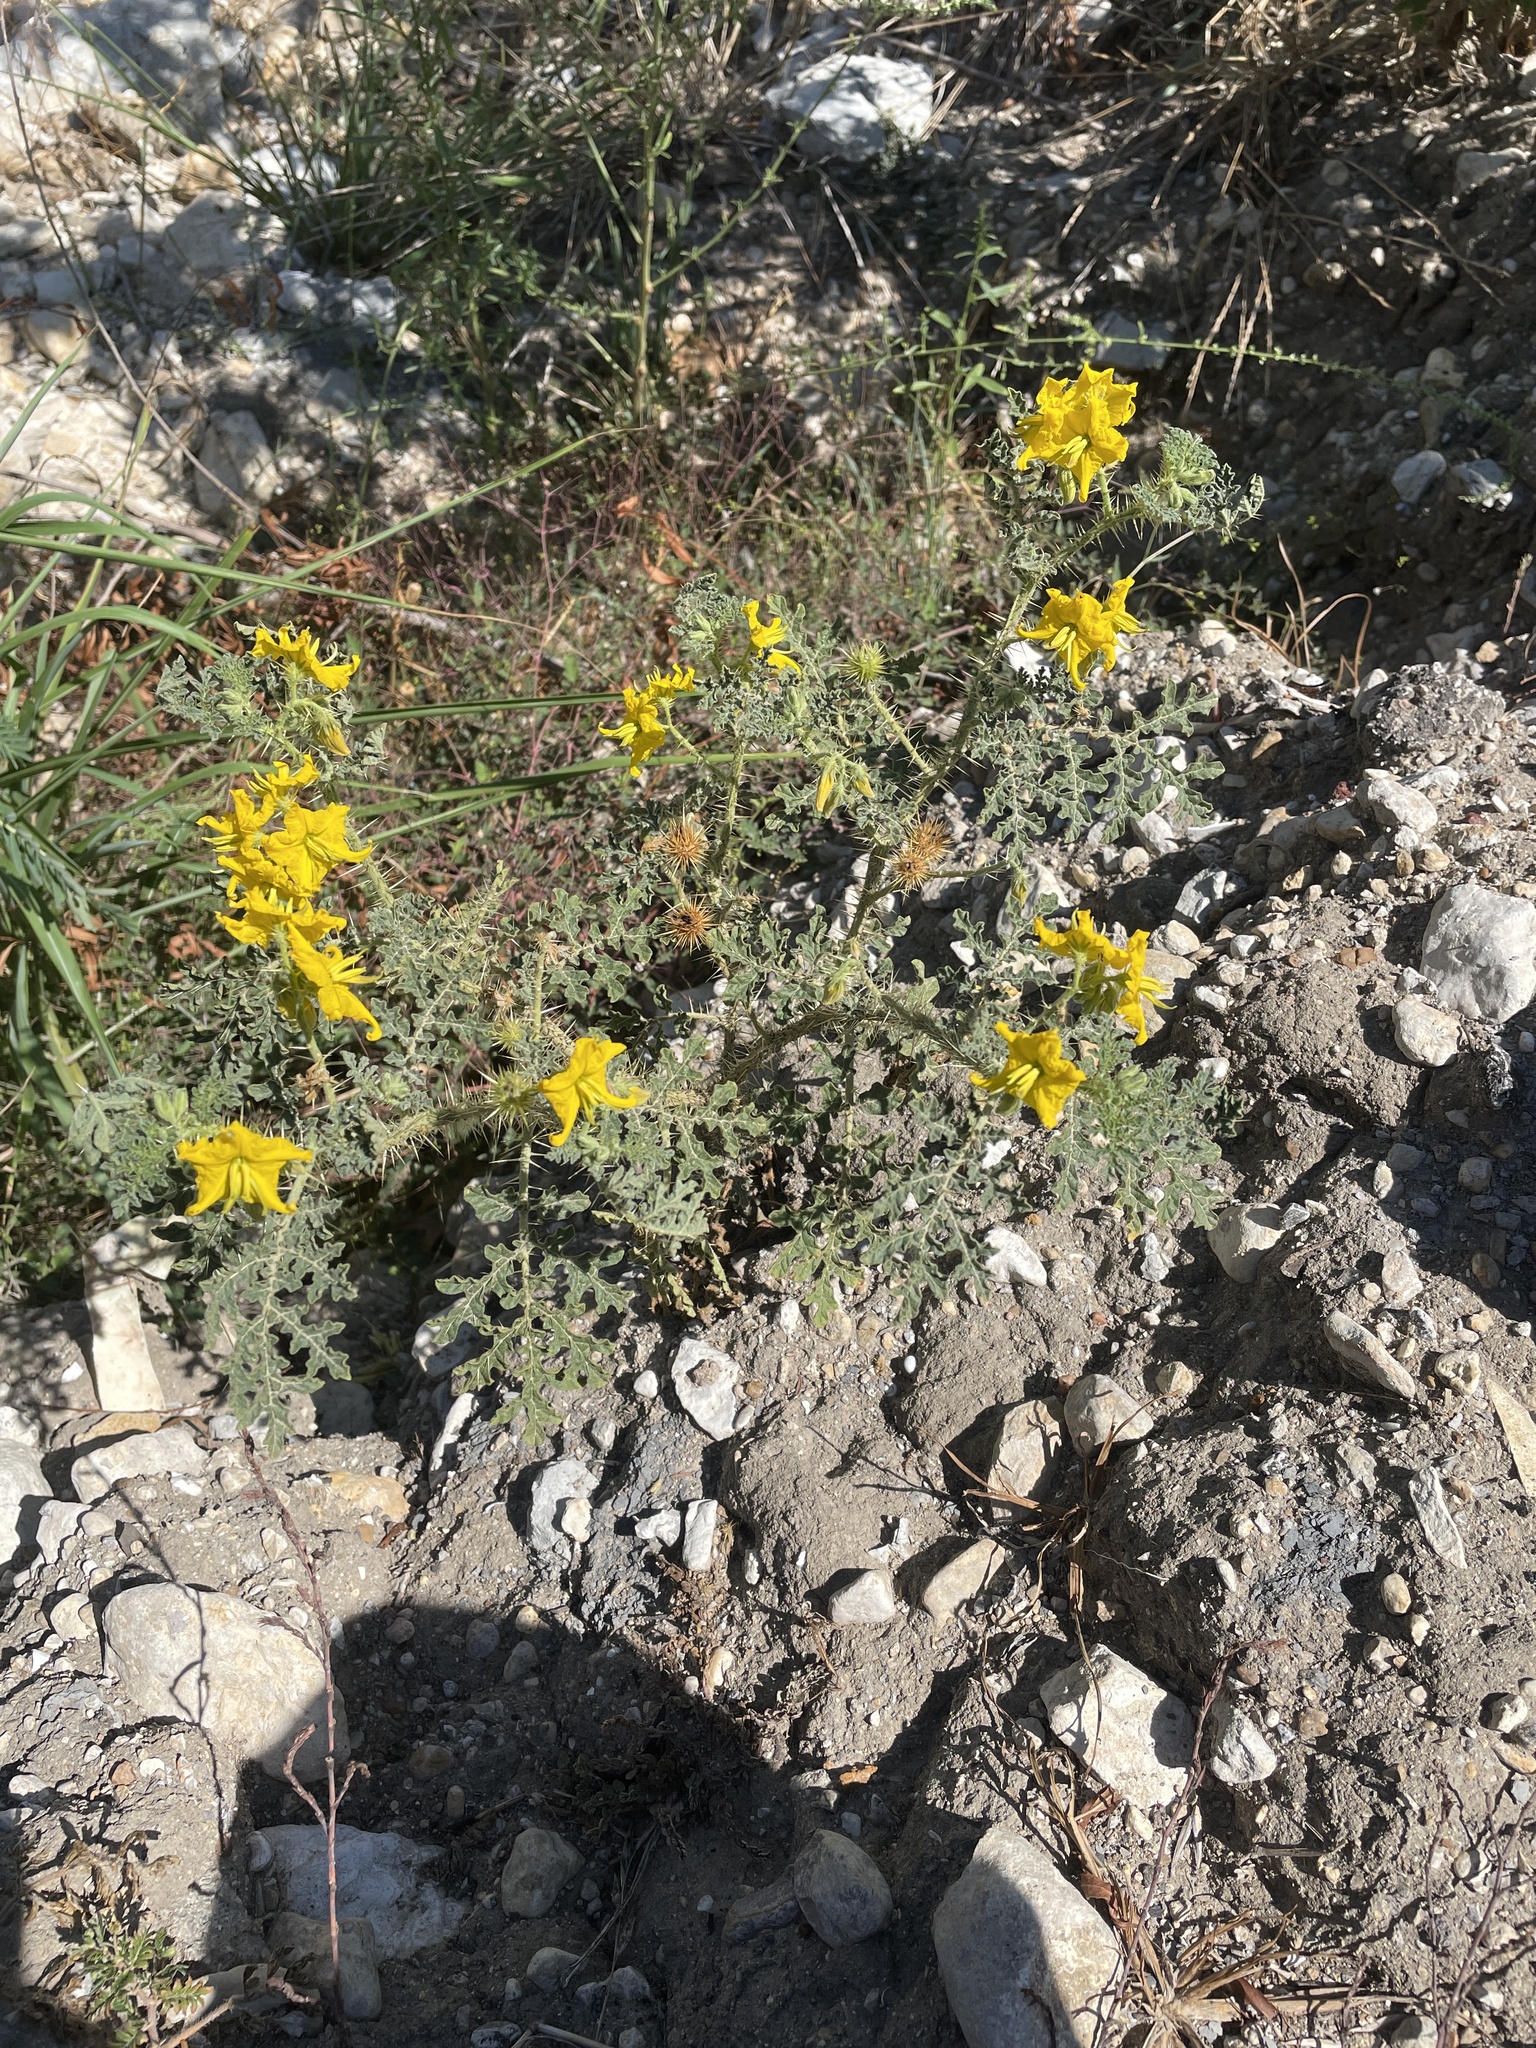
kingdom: Plantae
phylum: Tracheophyta
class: Magnoliopsida
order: Solanales
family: Solanaceae
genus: Solanum
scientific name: Solanum angustifolium
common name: Buffalobur nightshade
